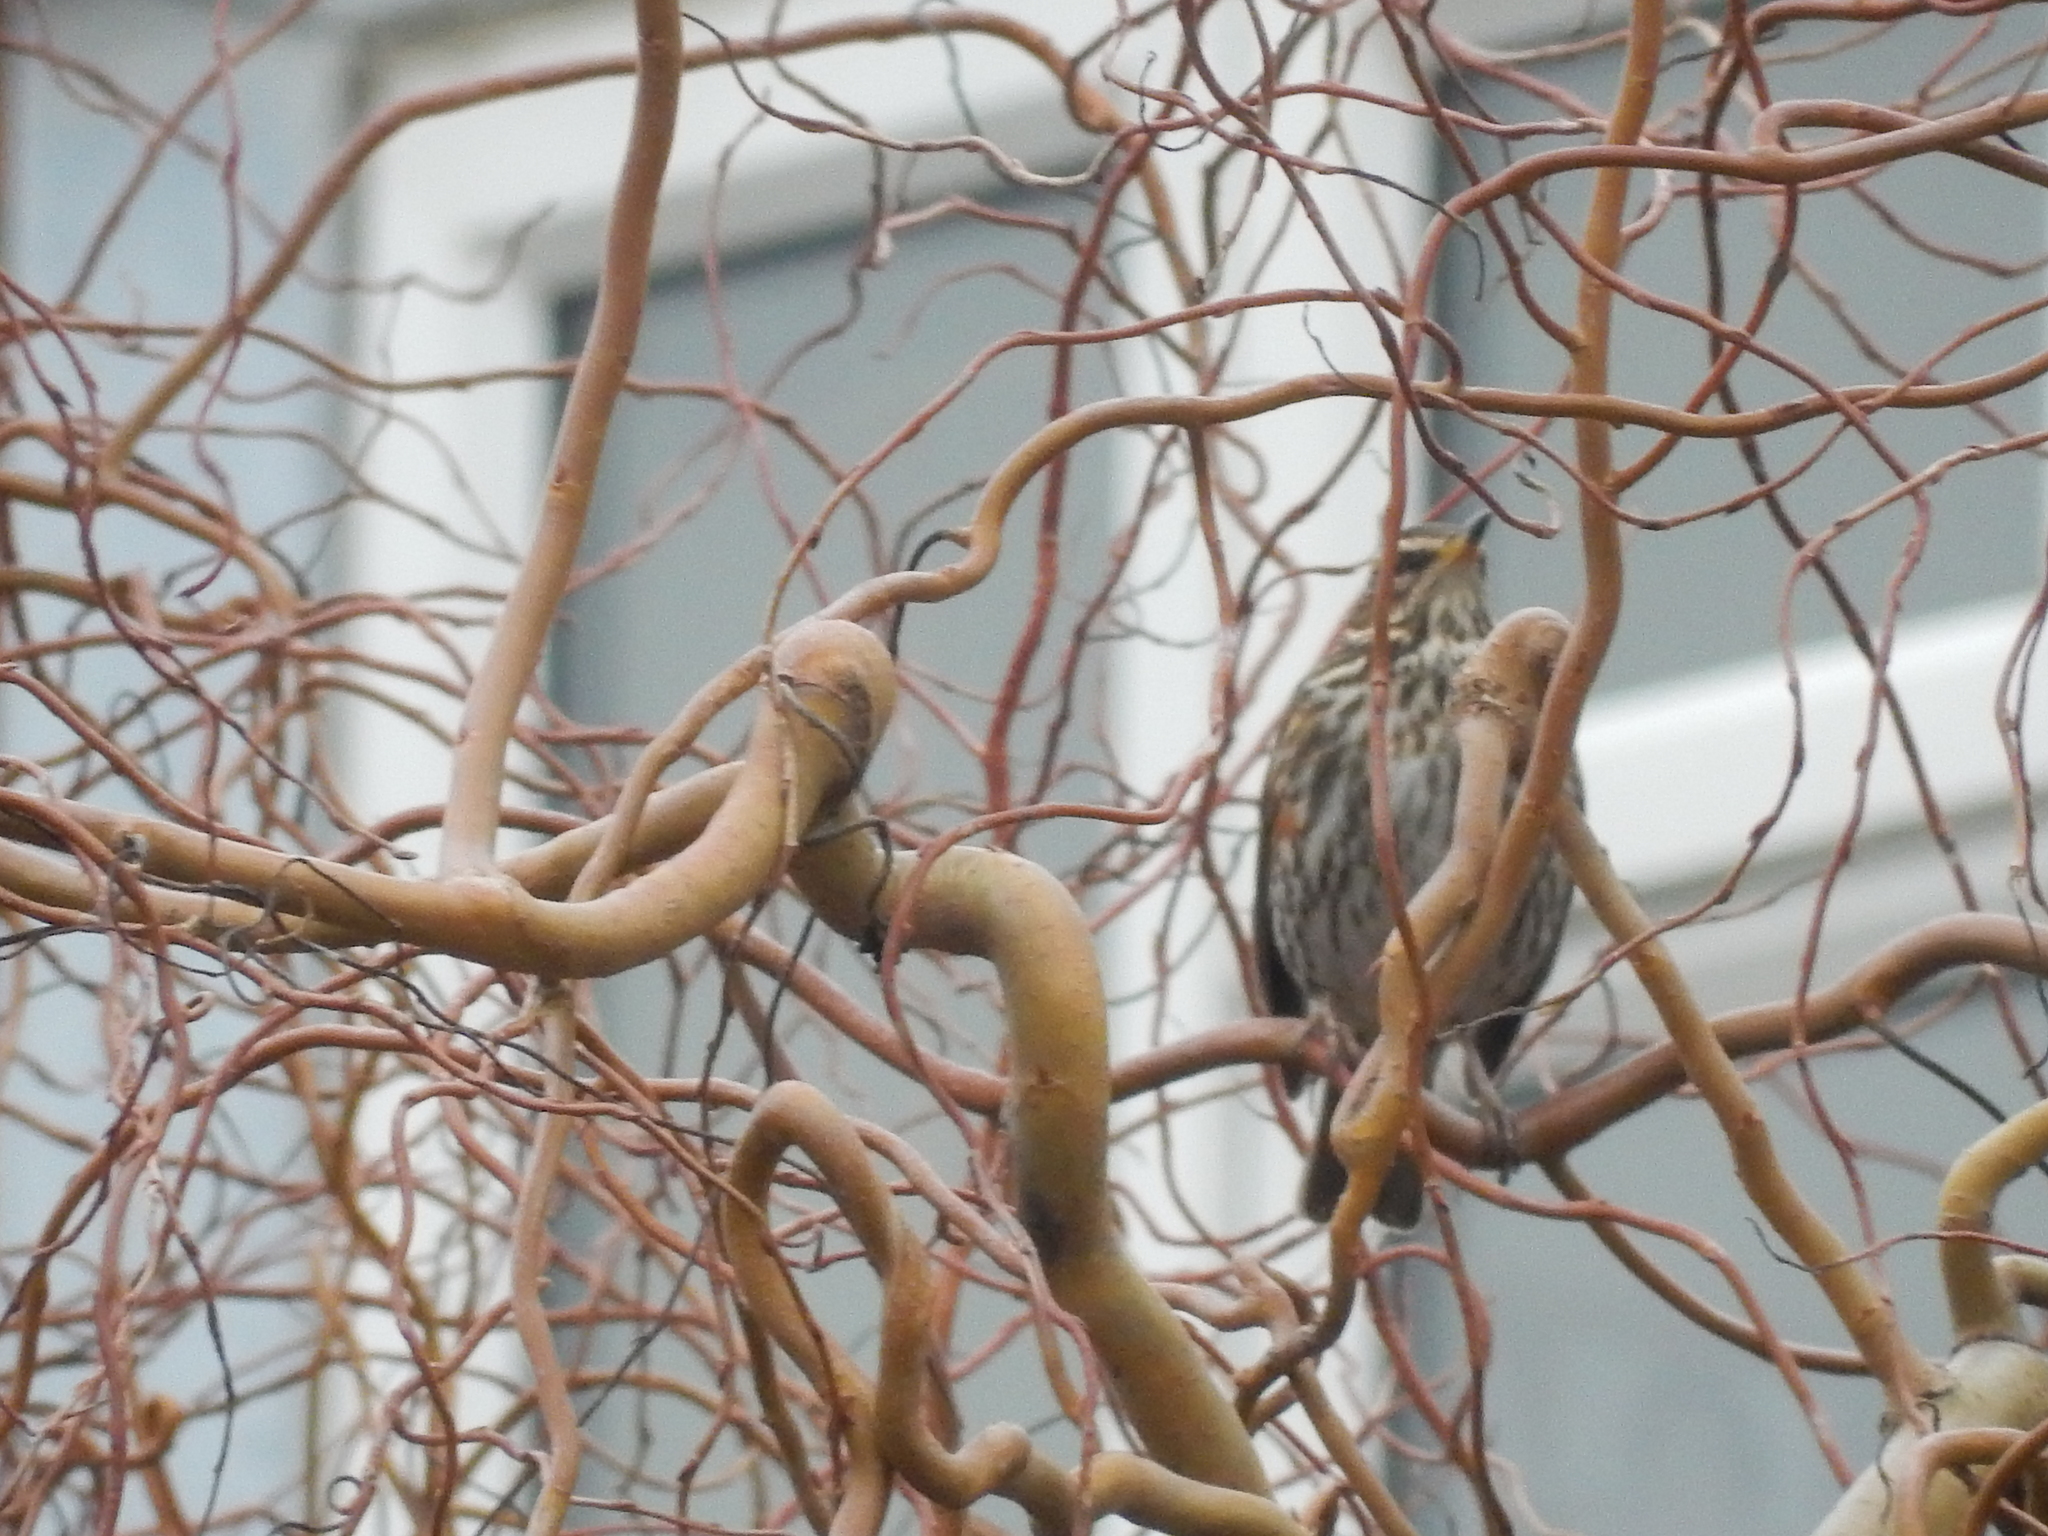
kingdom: Animalia
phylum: Chordata
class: Aves
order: Passeriformes
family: Turdidae
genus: Turdus
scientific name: Turdus iliacus
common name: Redwing
